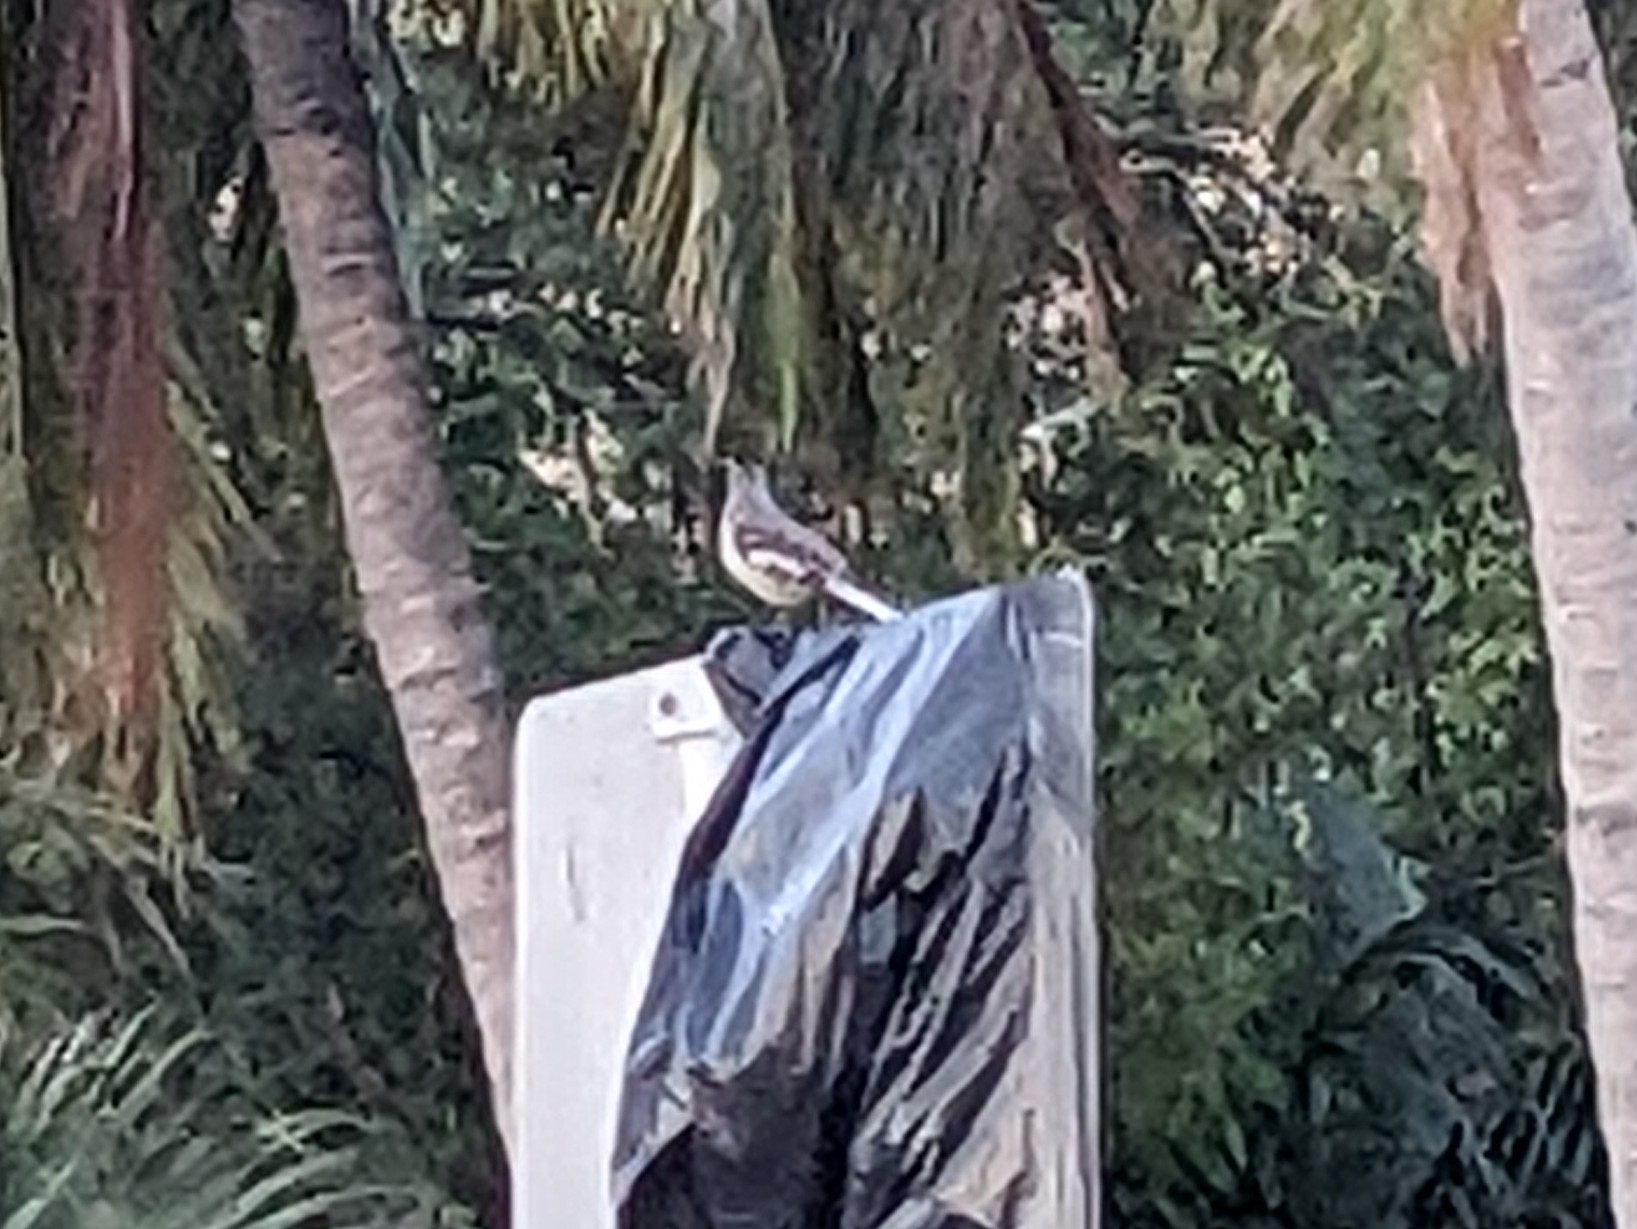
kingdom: Animalia
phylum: Chordata
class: Aves
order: Passeriformes
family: Mimidae
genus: Mimus
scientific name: Mimus polyglottos
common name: Northern mockingbird
